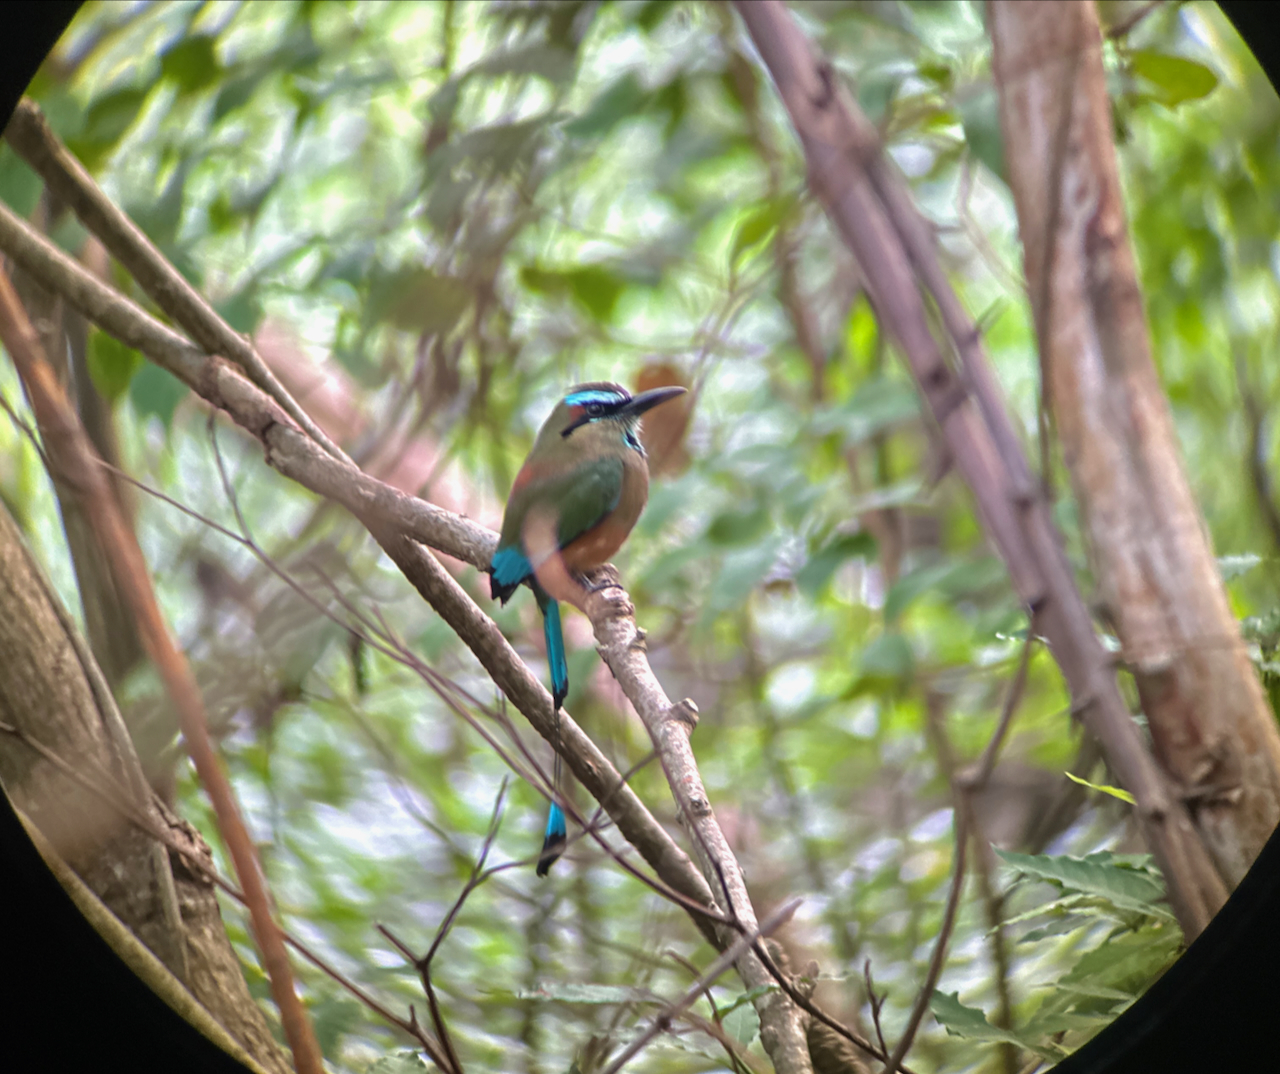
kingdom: Animalia
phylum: Chordata
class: Aves
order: Coraciiformes
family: Momotidae
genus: Eumomota
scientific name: Eumomota superciliosa
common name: Turquoise-browed motmot
